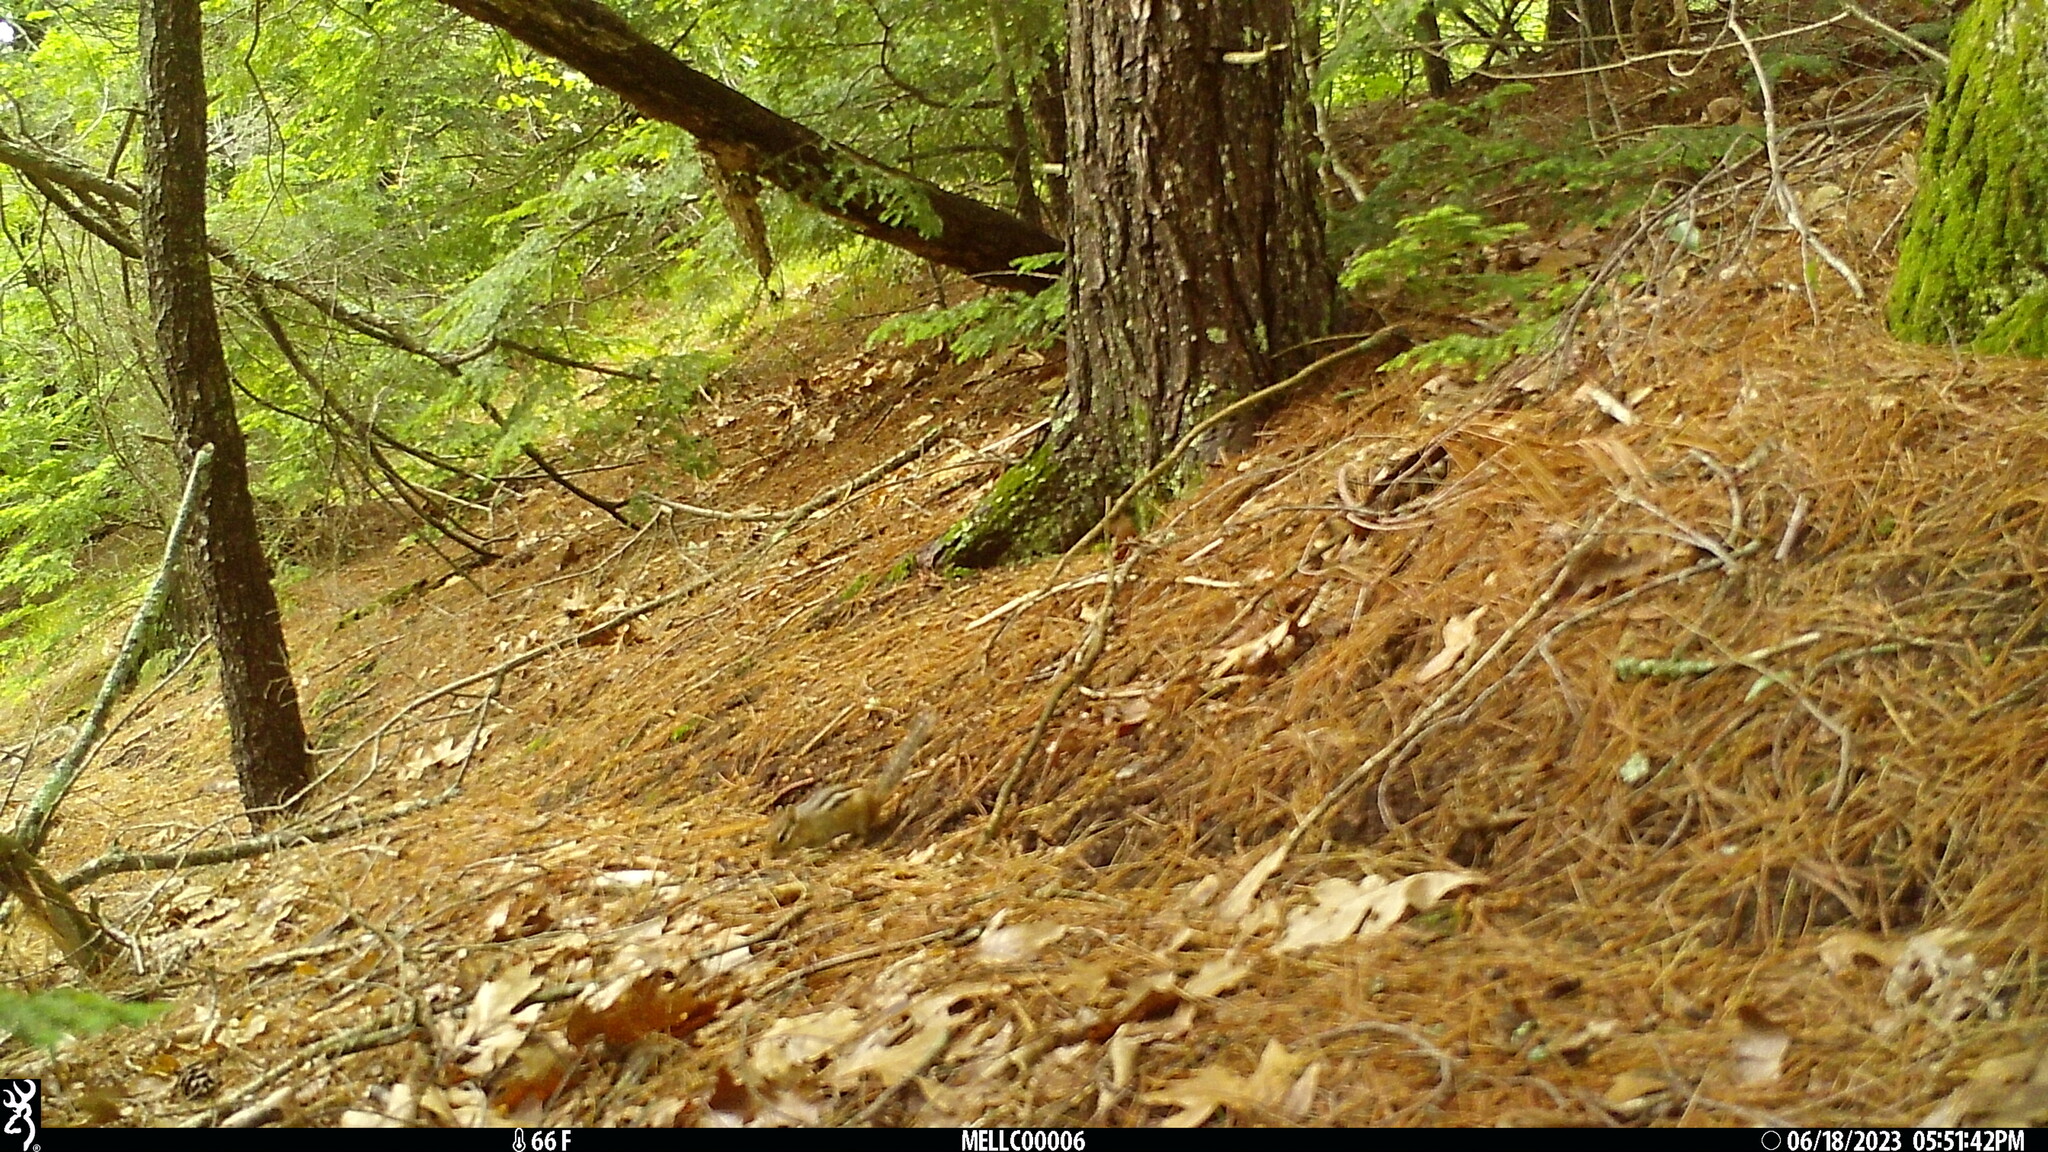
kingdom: Animalia
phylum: Chordata
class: Mammalia
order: Rodentia
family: Sciuridae
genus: Tamias
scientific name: Tamias striatus
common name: Eastern chipmunk
